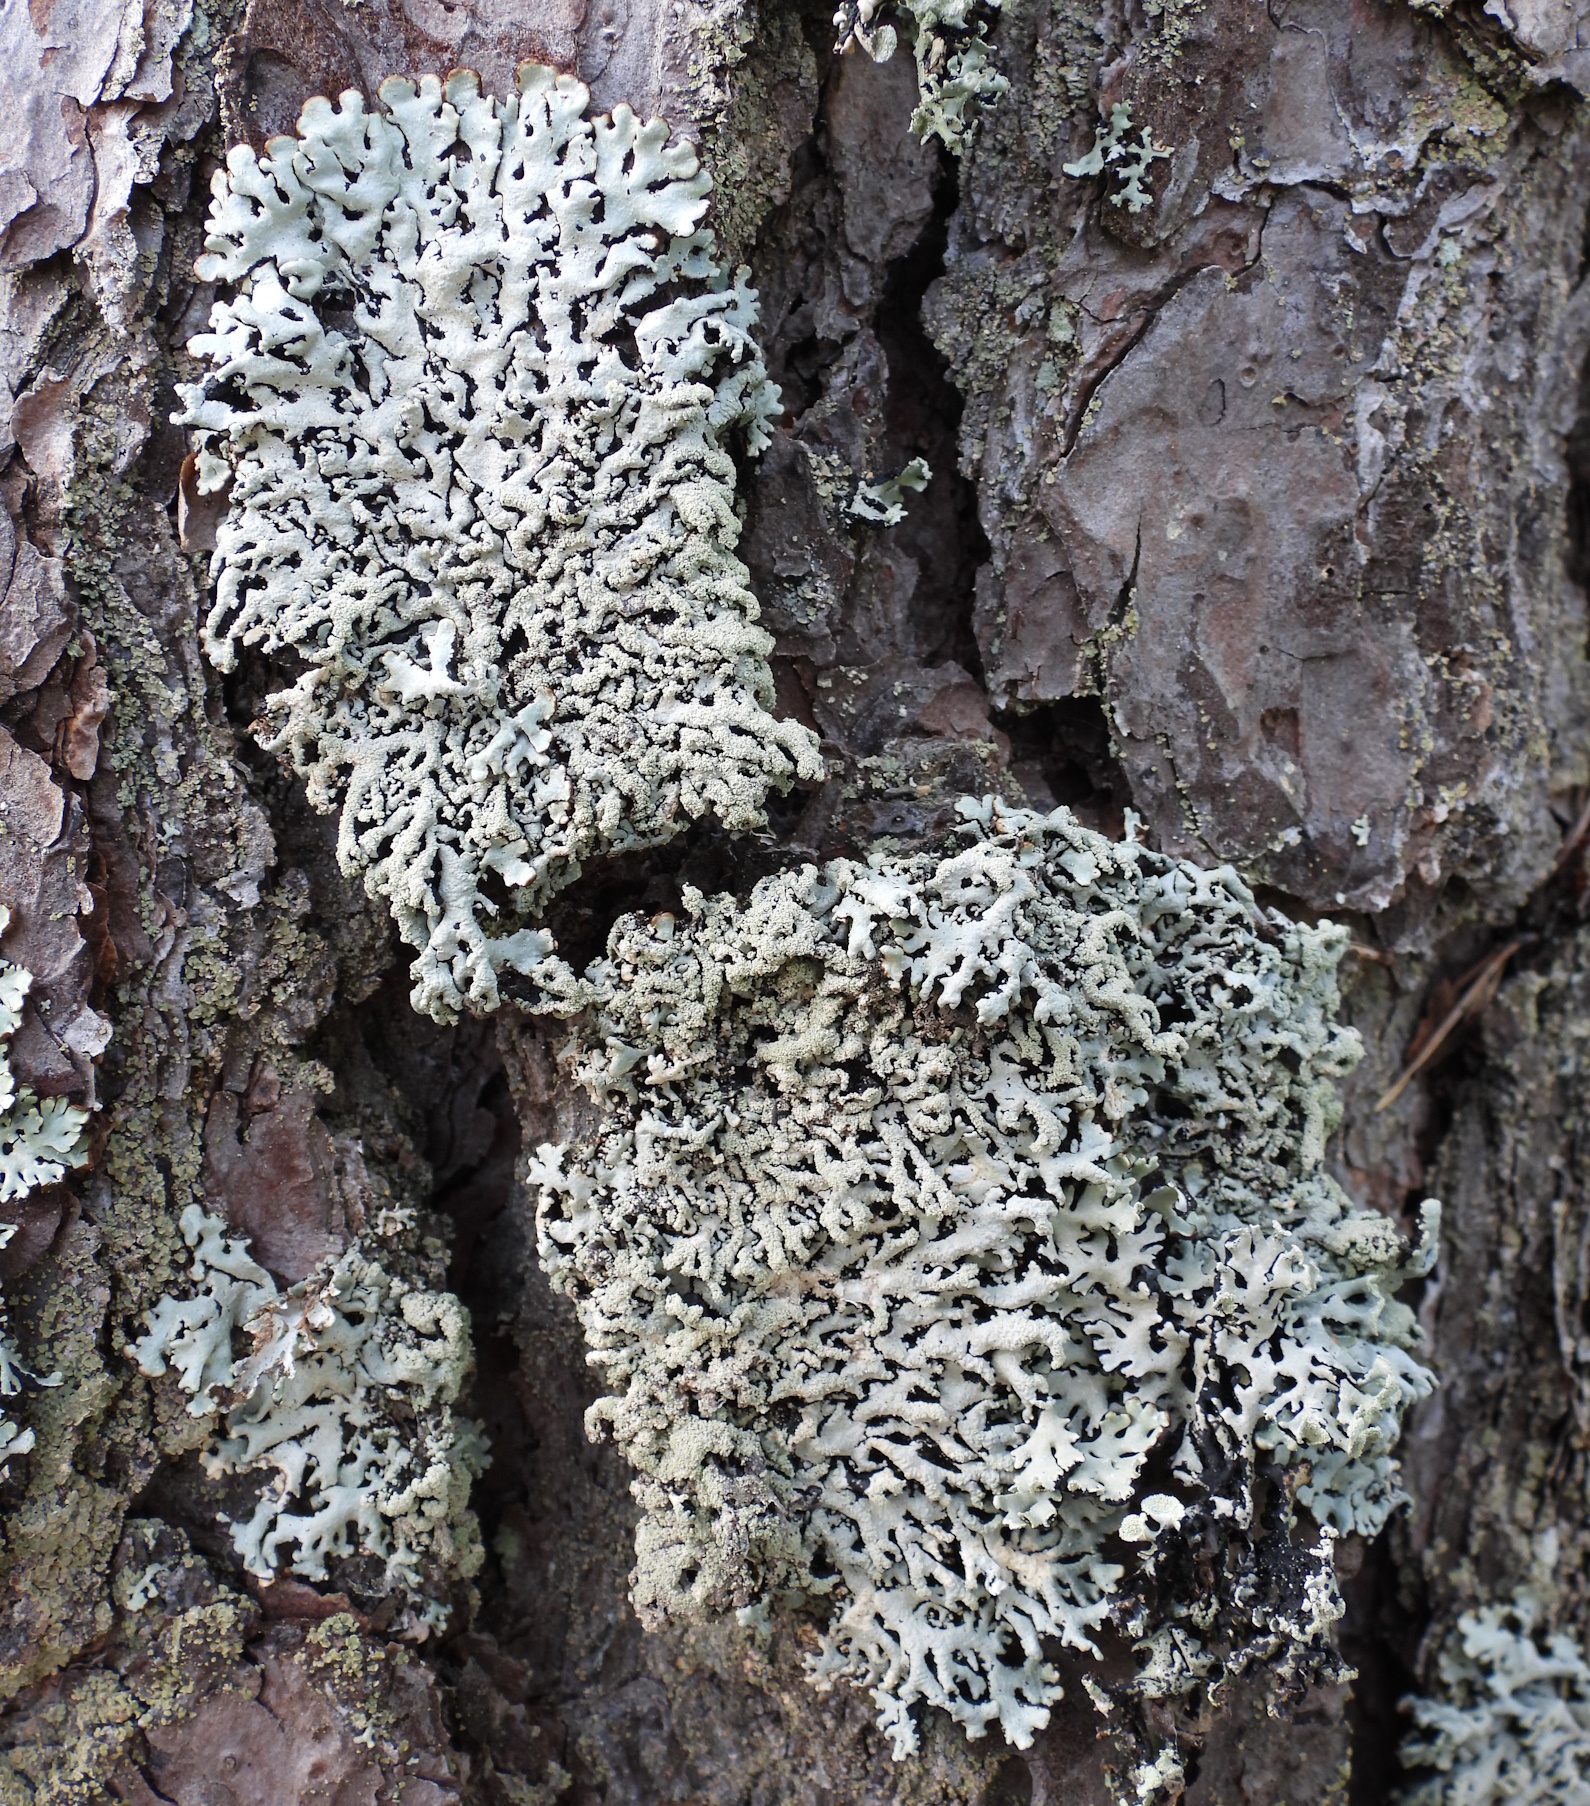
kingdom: Fungi
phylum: Ascomycota
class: Lecanoromycetes
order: Lecanorales
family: Parmeliaceae
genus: Hypogymnia
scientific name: Hypogymnia farinacea
